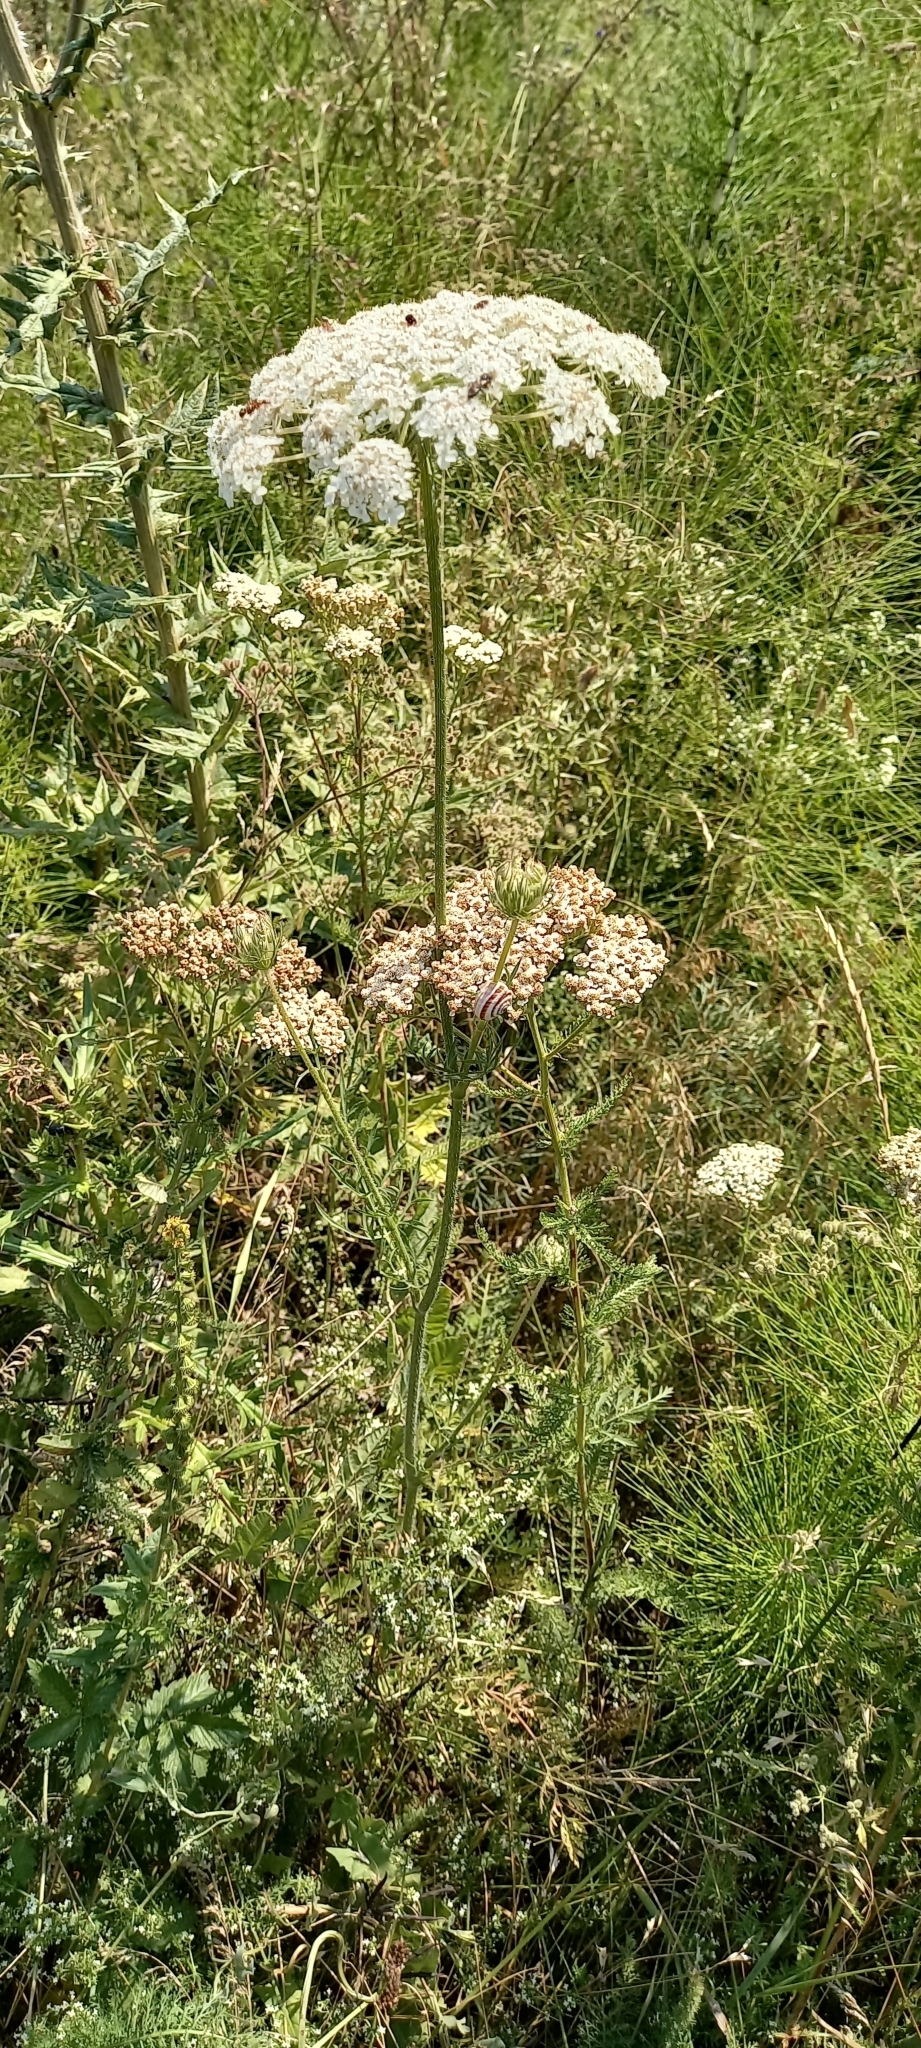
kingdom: Plantae
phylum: Tracheophyta
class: Magnoliopsida
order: Apiales
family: Apiaceae
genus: Daucus
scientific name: Daucus carota
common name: Wild carrot
